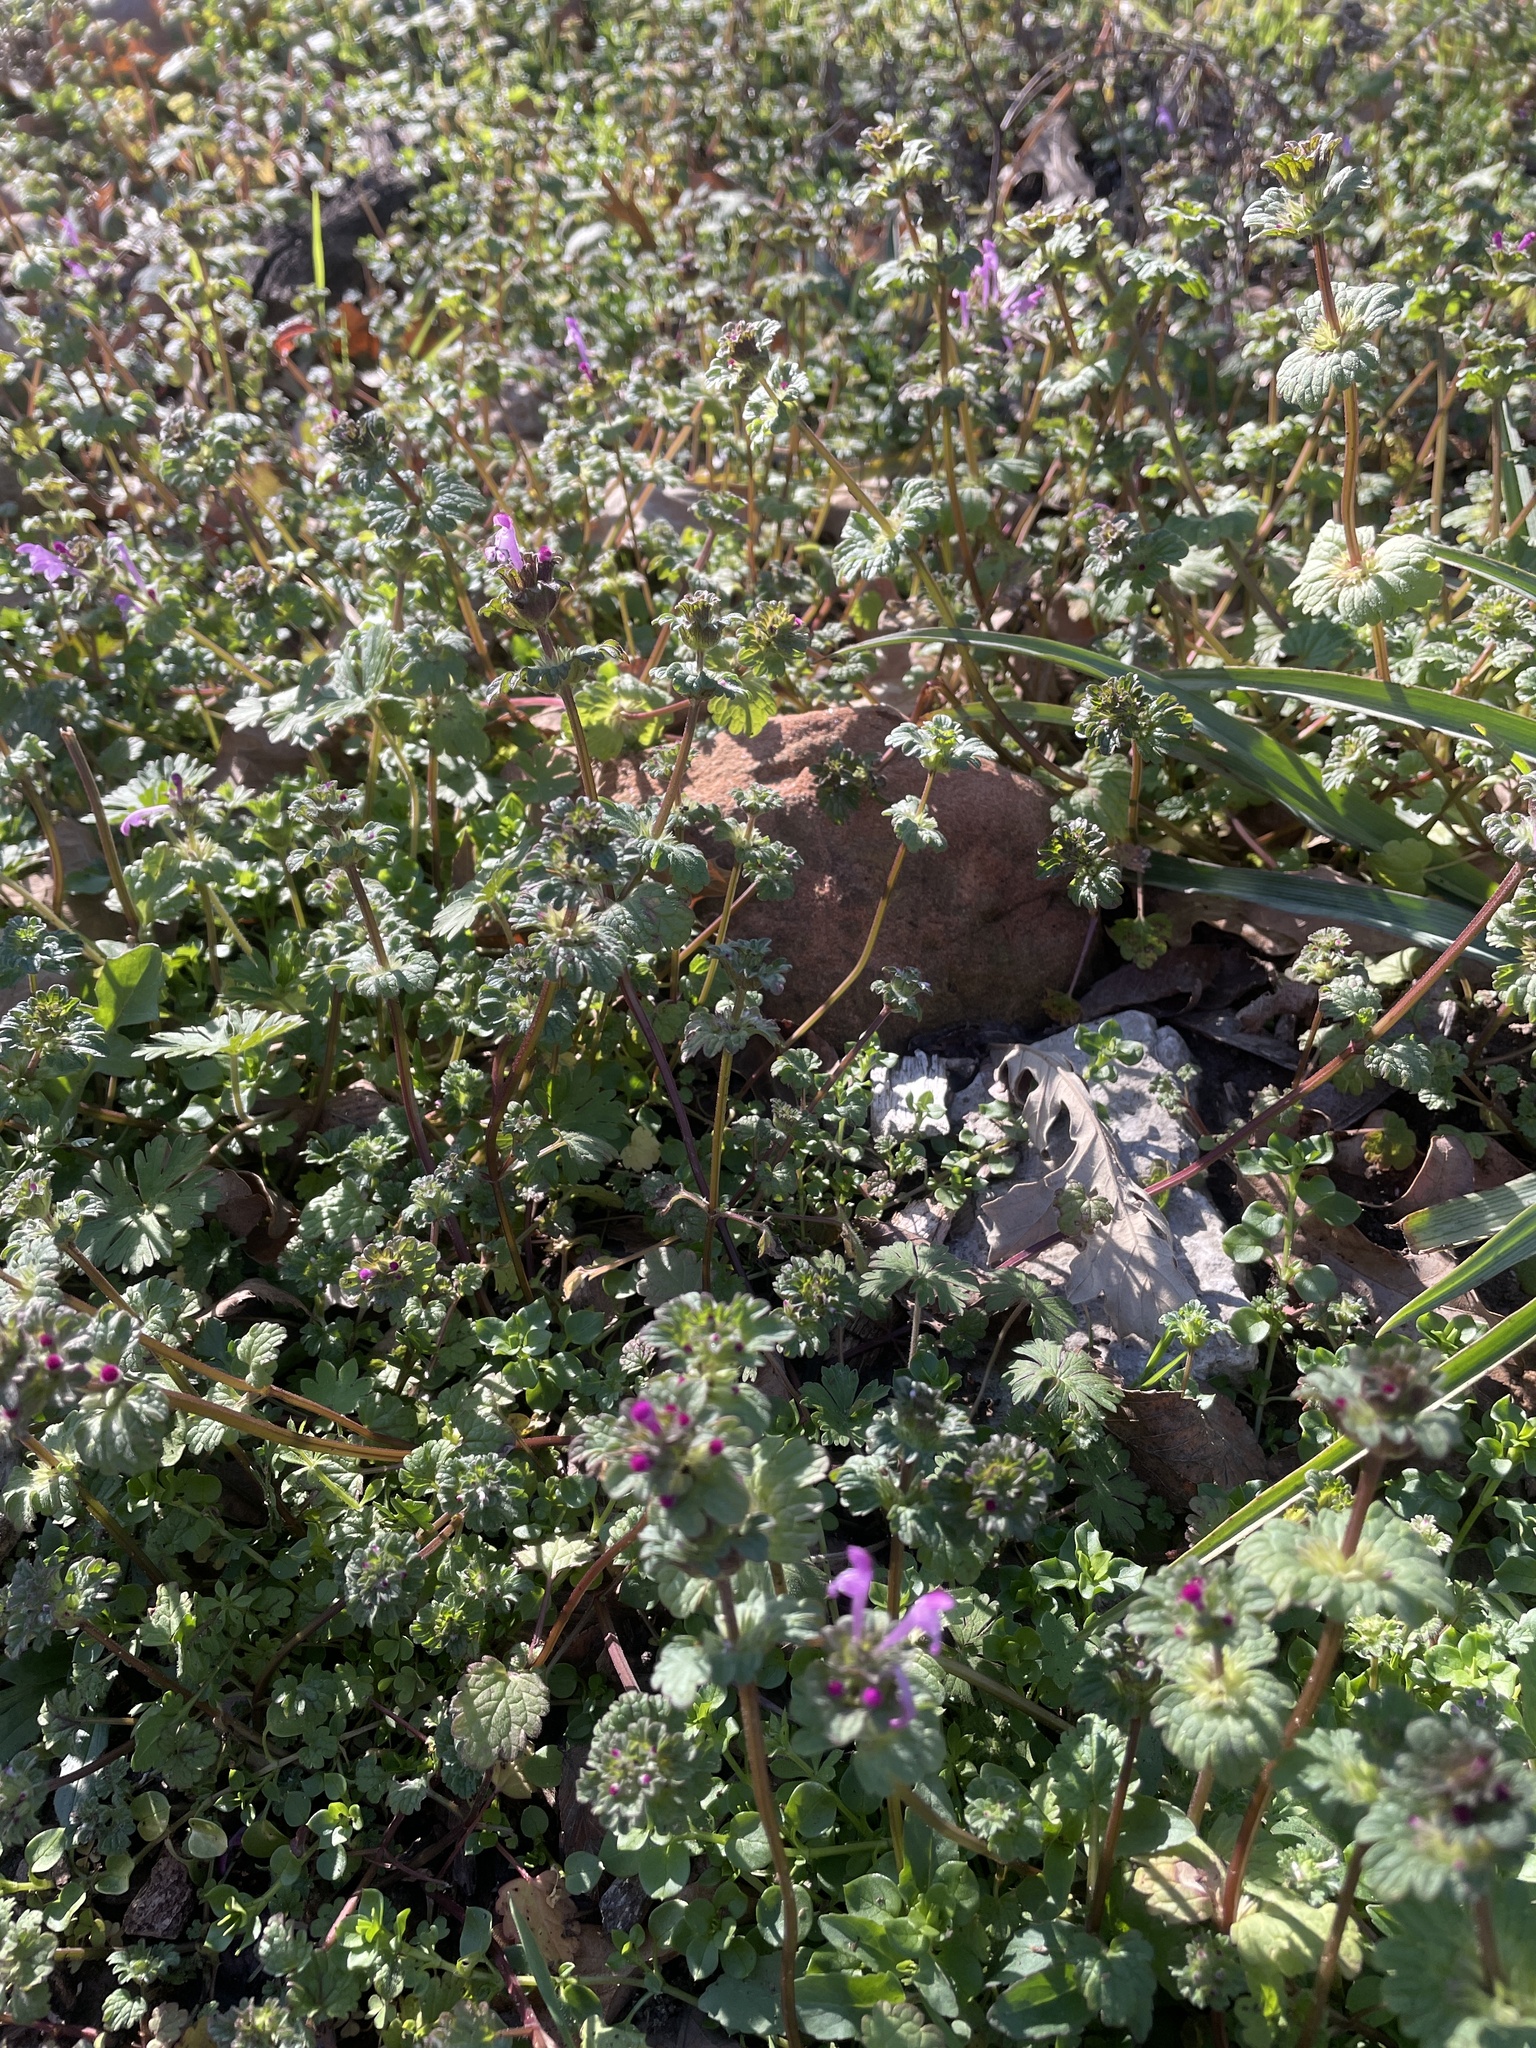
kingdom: Plantae
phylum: Tracheophyta
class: Magnoliopsida
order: Lamiales
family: Lamiaceae
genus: Lamium
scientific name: Lamium amplexicaule
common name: Henbit dead-nettle
